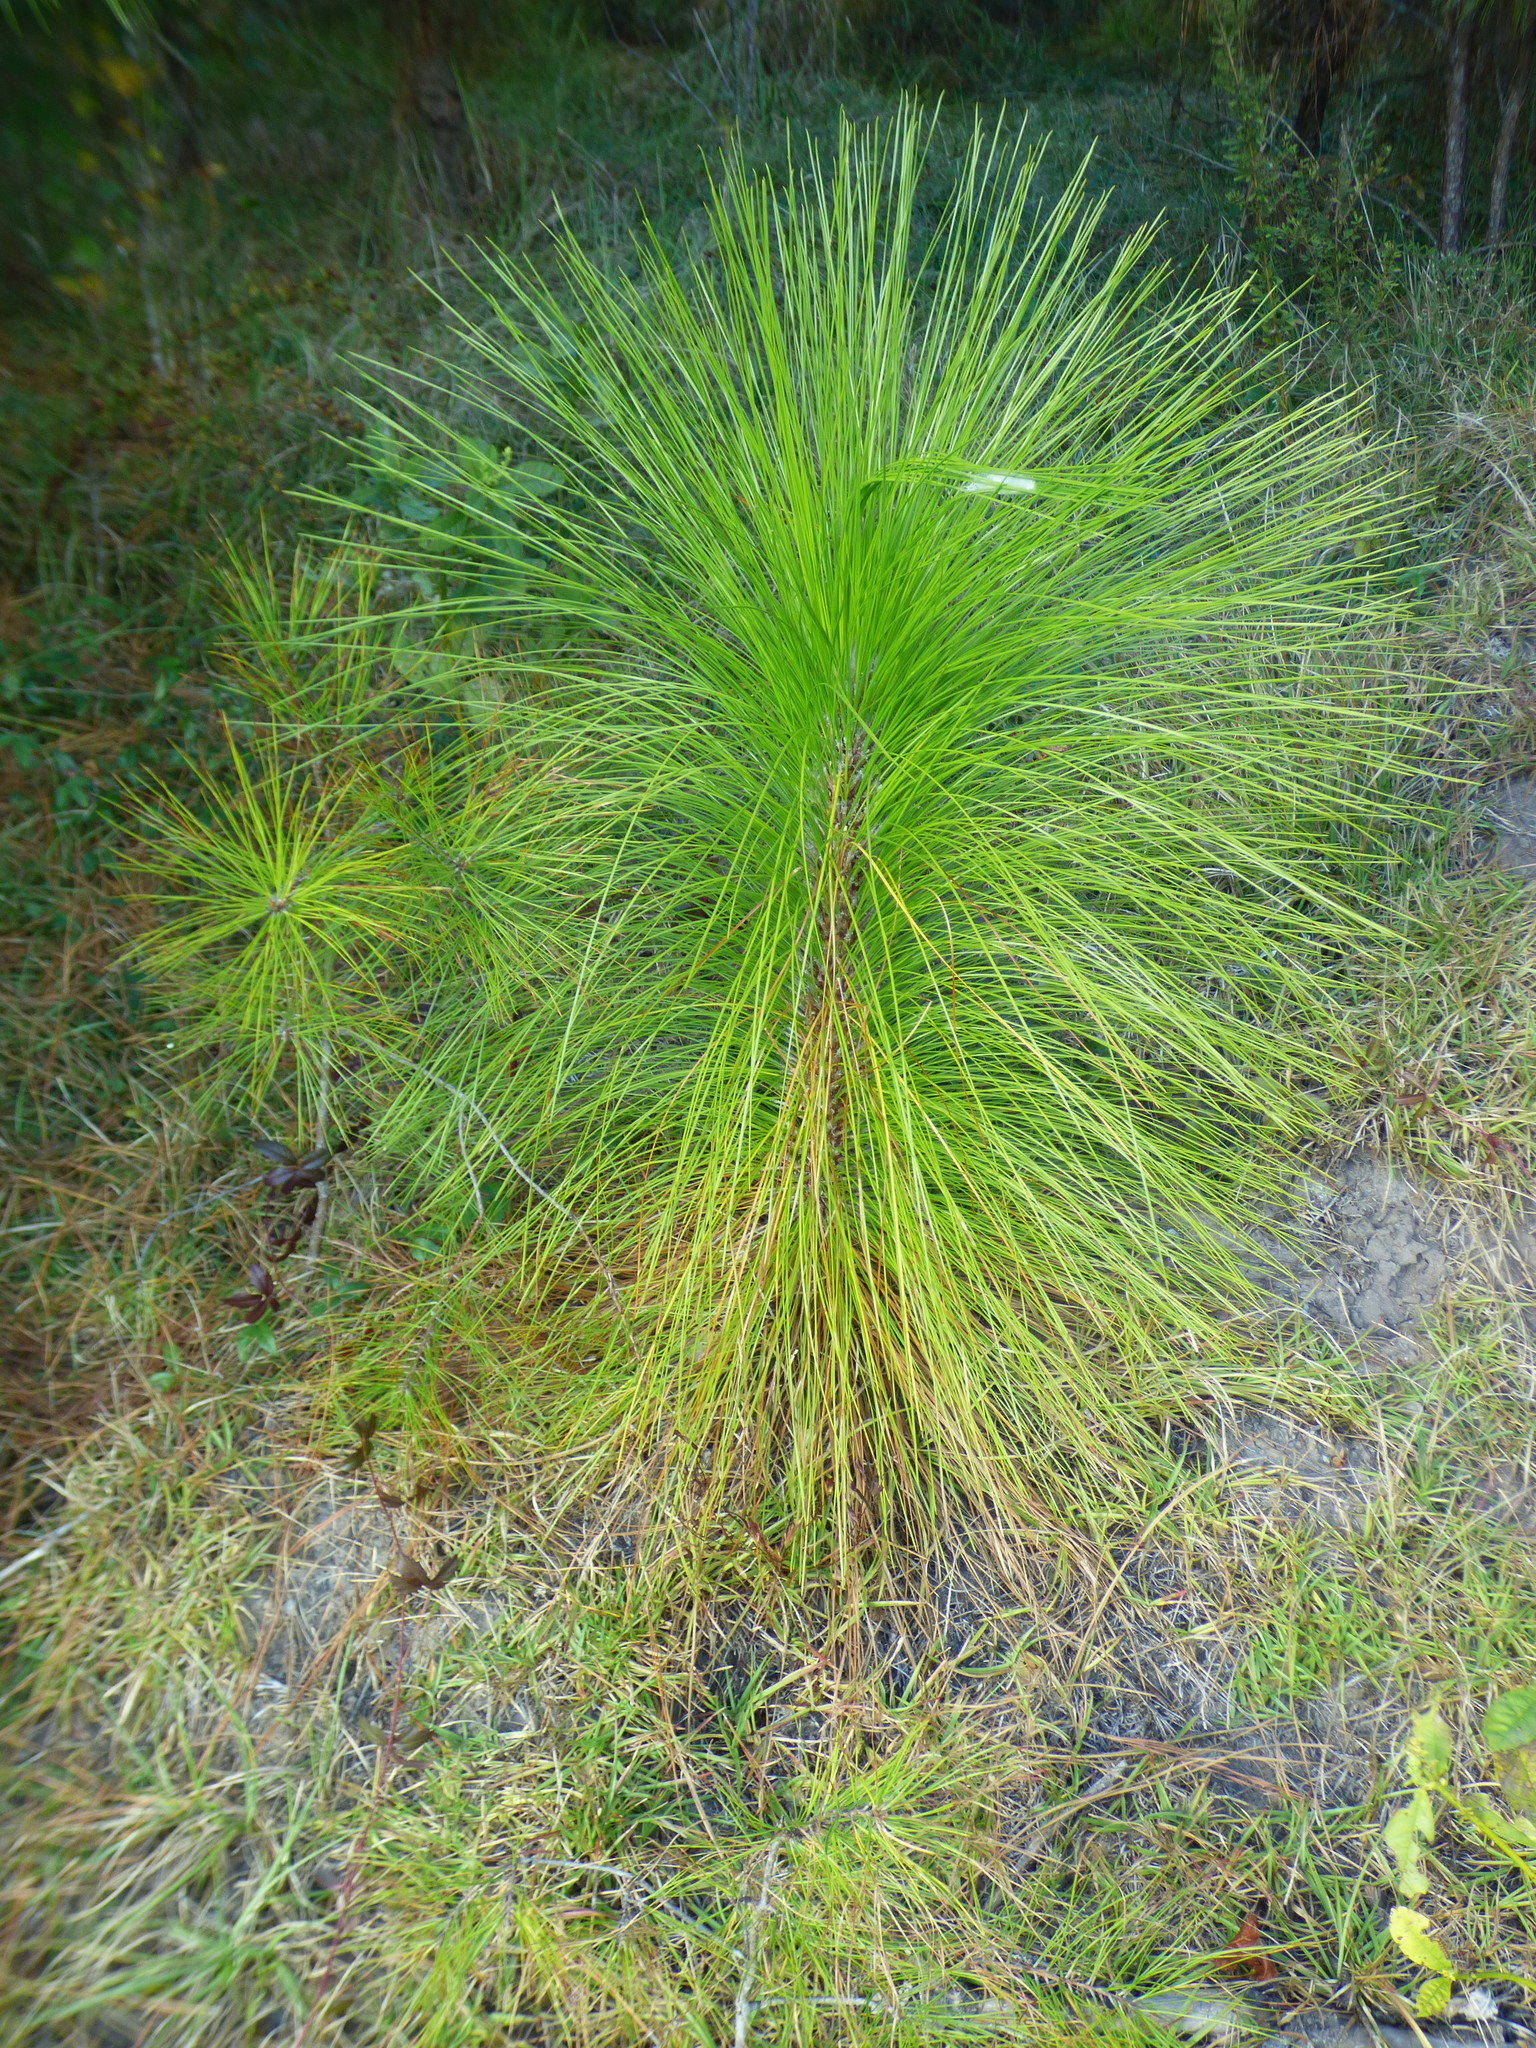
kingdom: Plantae
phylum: Tracheophyta
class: Pinopsida
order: Pinales
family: Pinaceae
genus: Pinus
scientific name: Pinus palustris
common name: Longleaf pine
